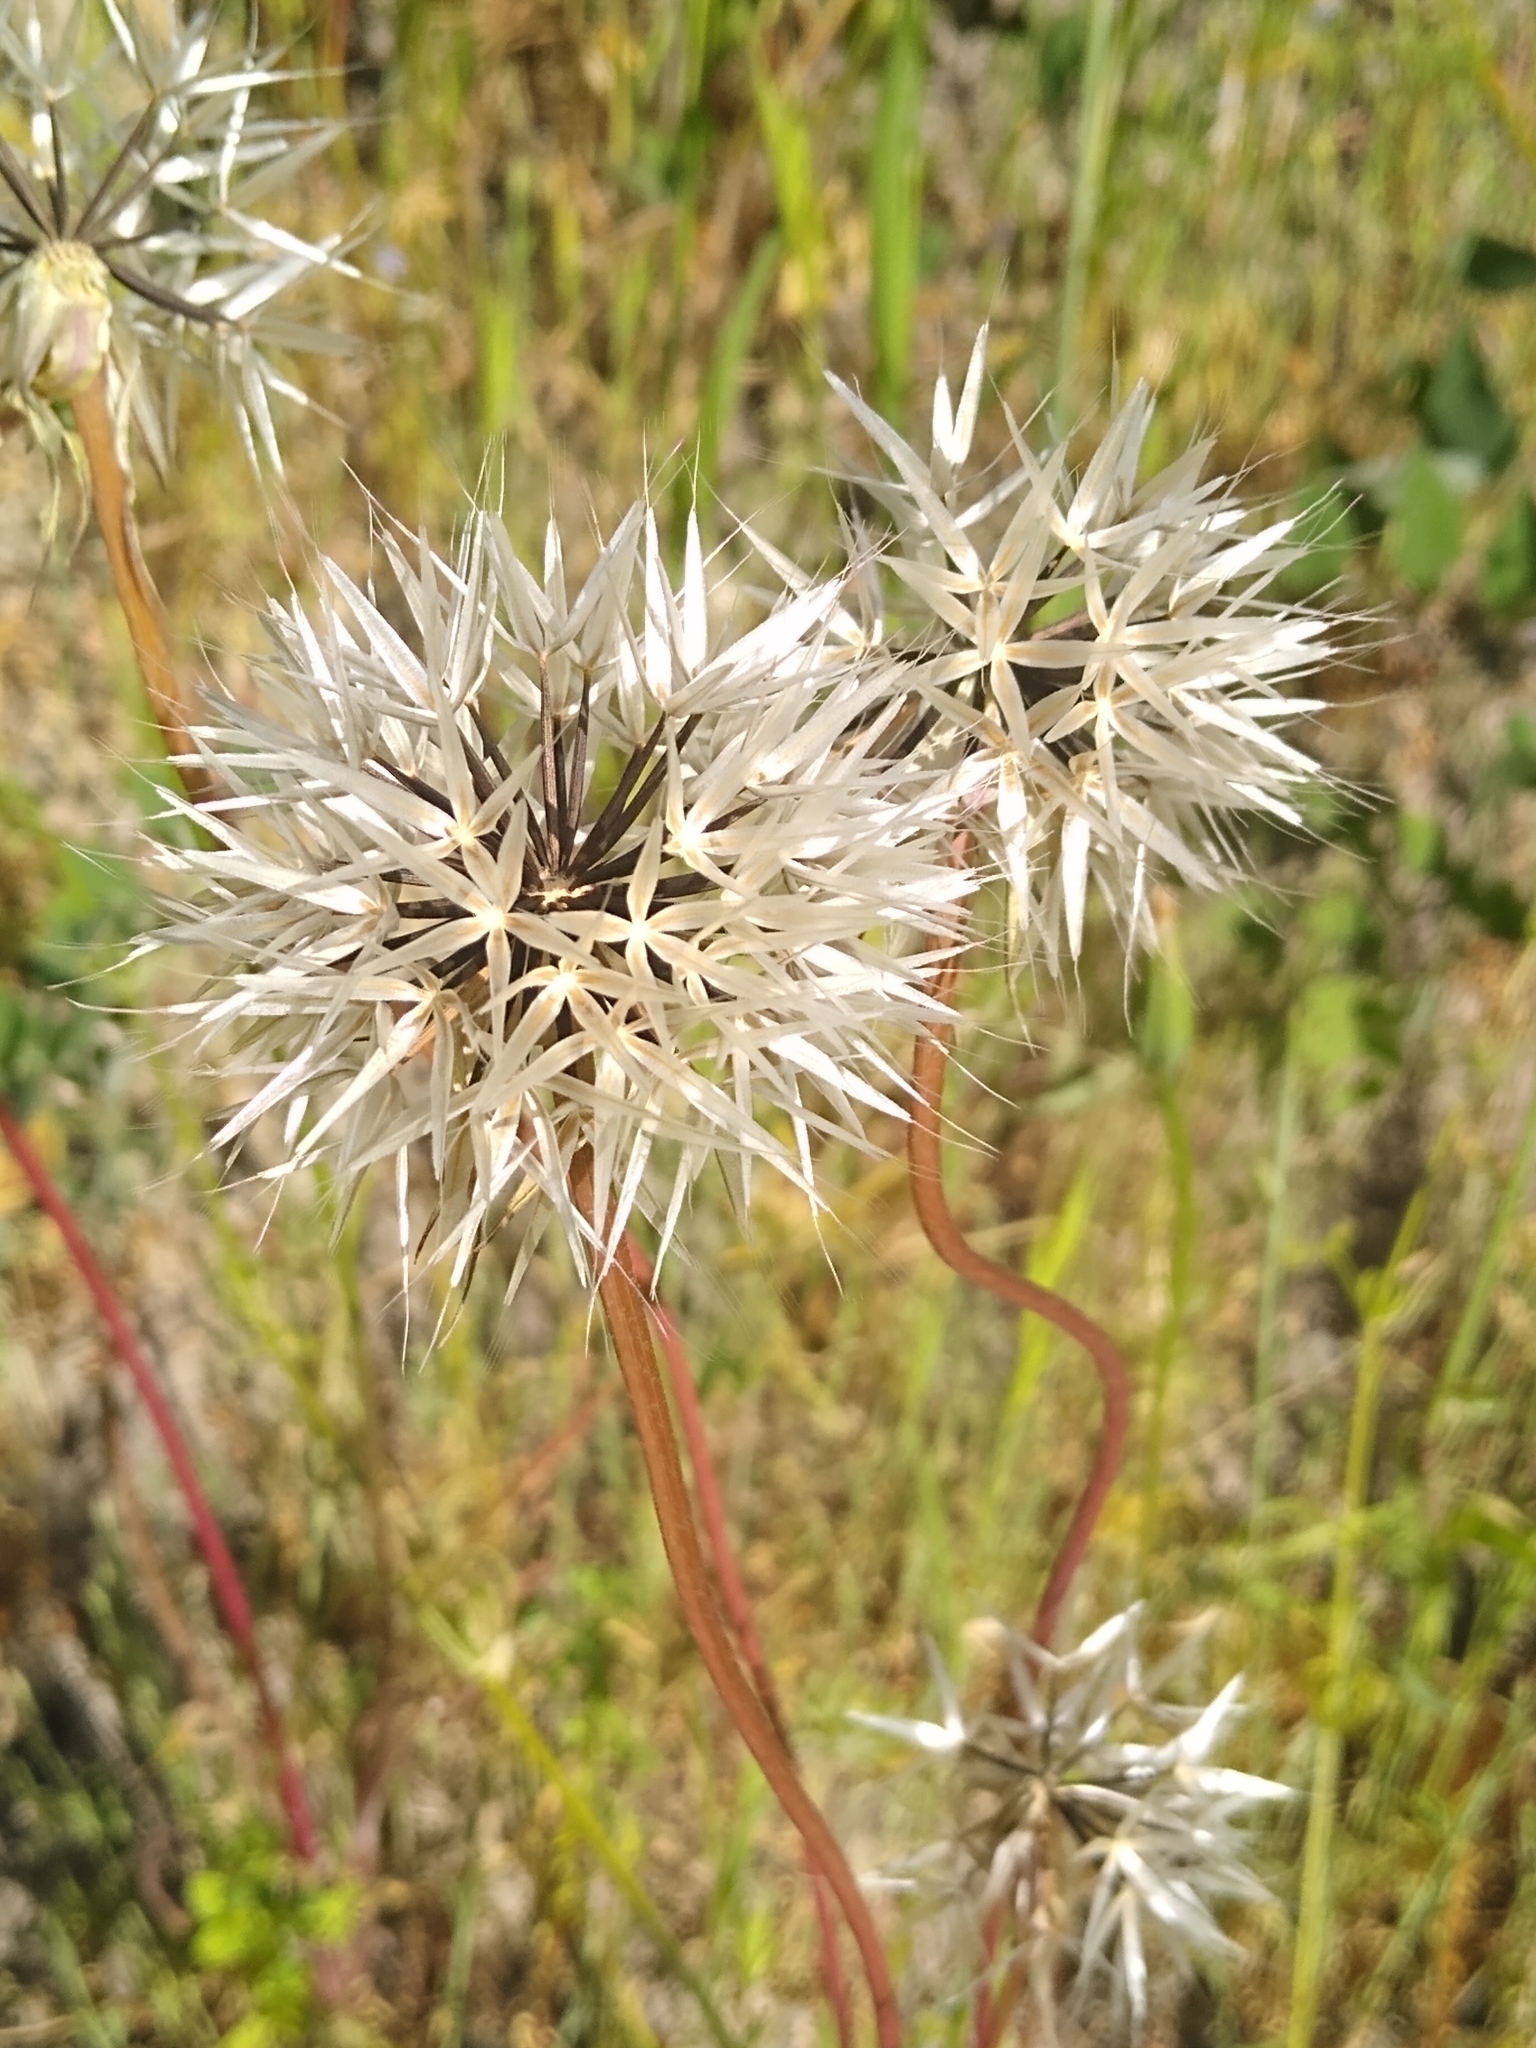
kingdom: Plantae
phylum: Tracheophyta
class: Magnoliopsida
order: Asterales
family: Asteraceae
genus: Microseris
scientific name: Microseris lindleyi
